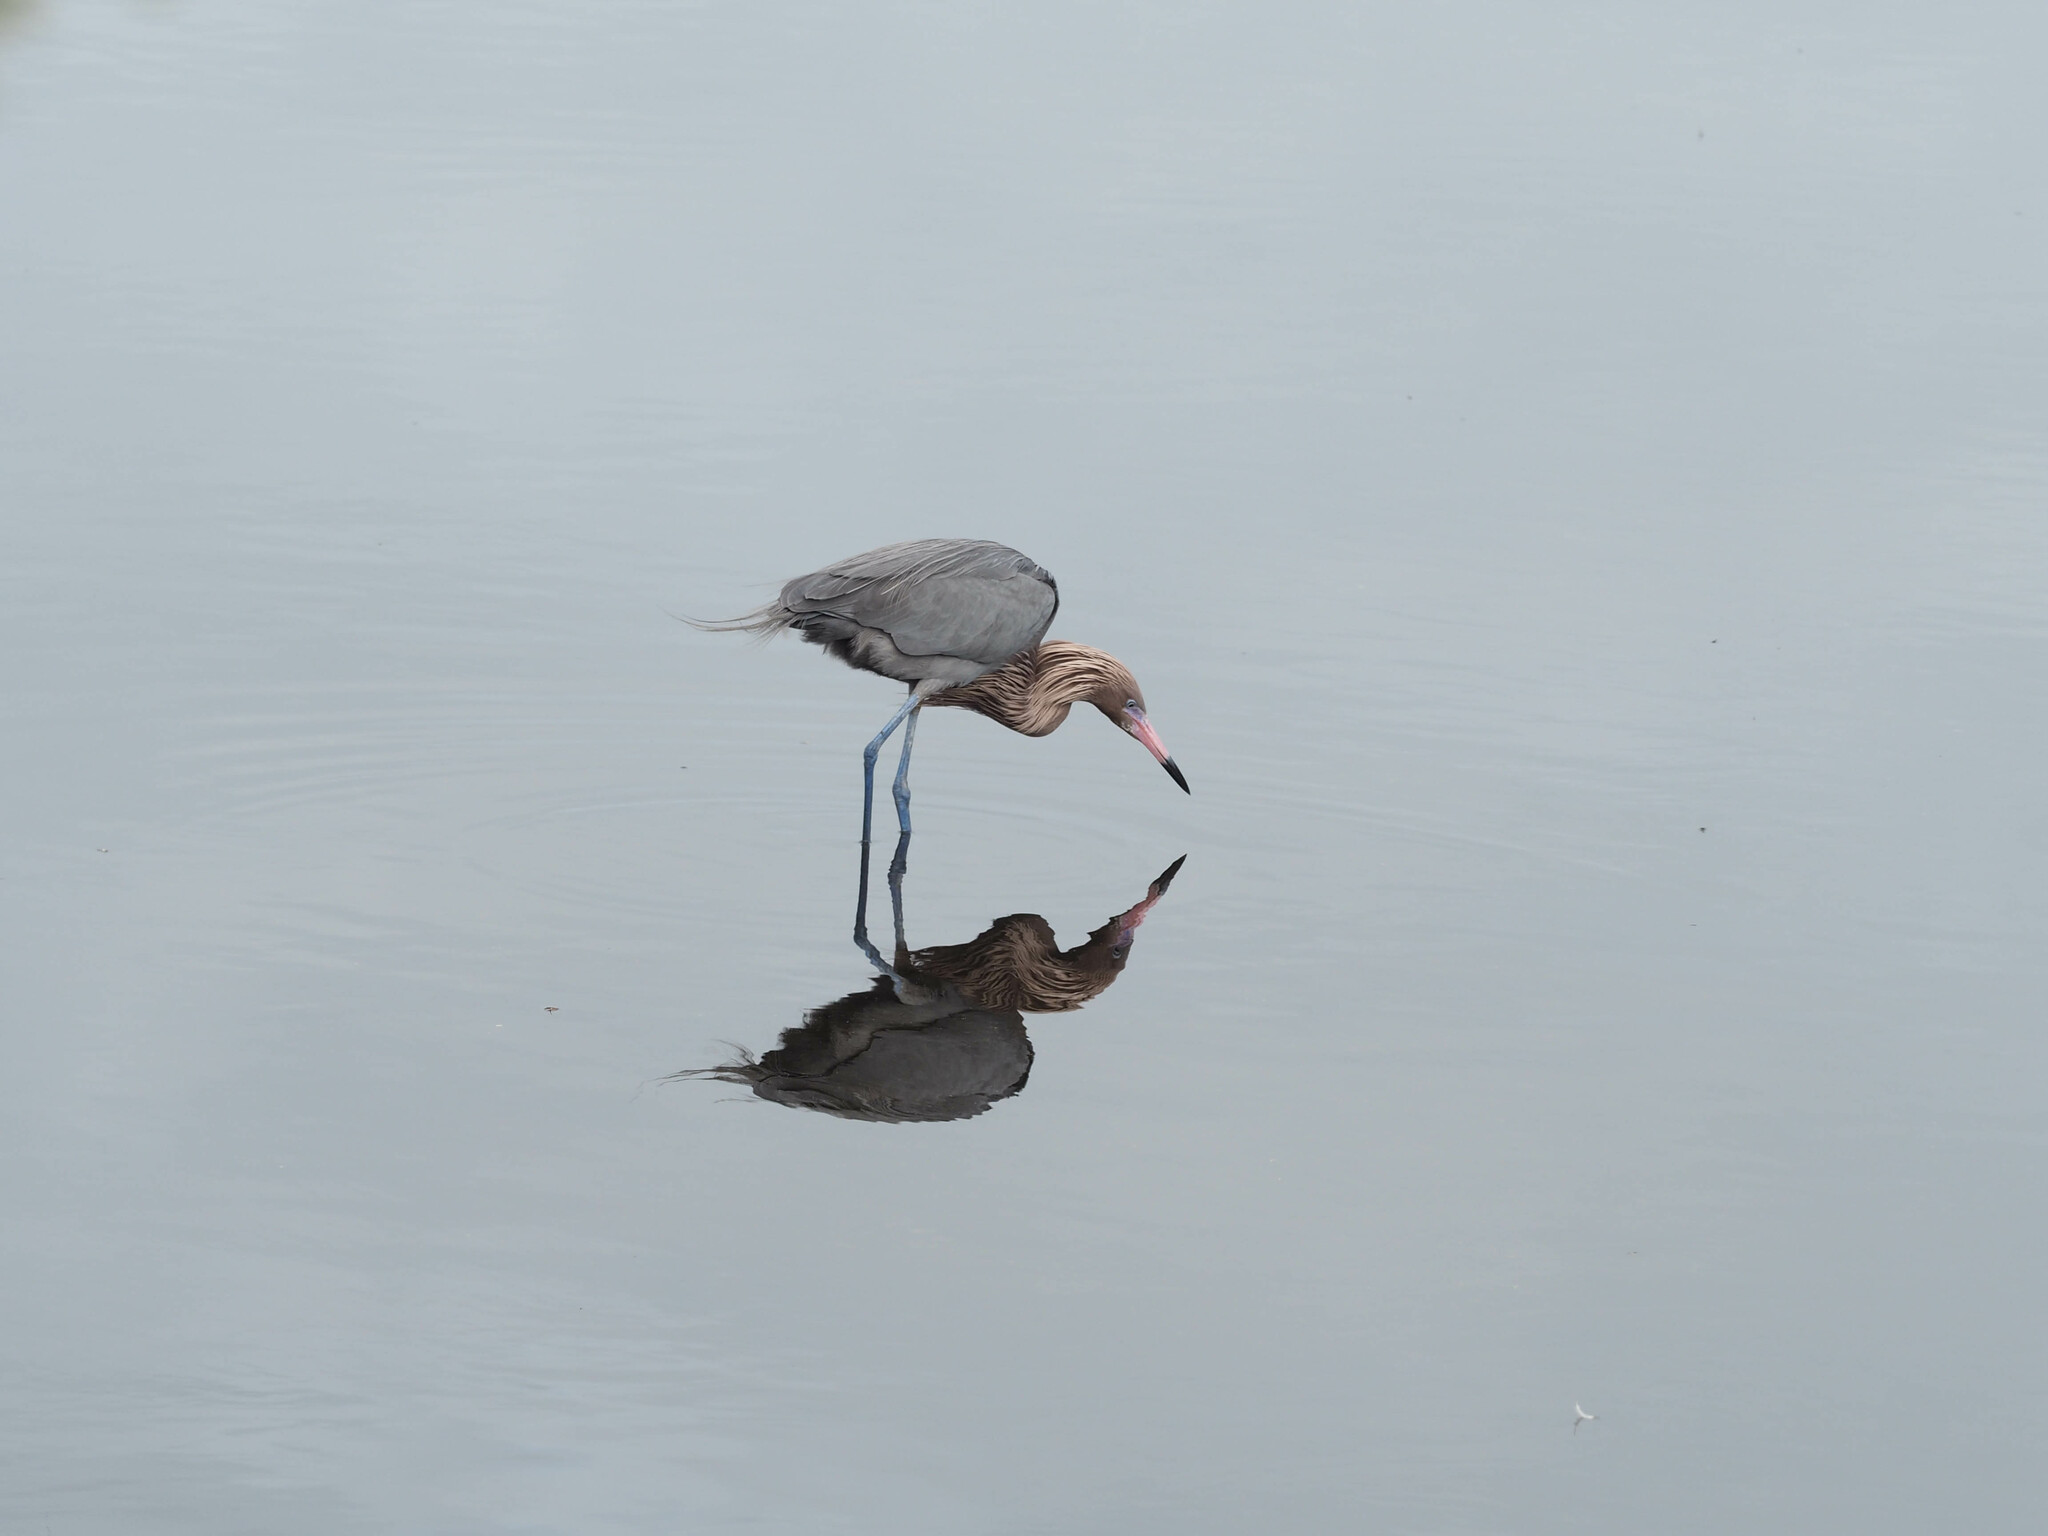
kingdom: Animalia
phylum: Chordata
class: Aves
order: Pelecaniformes
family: Ardeidae
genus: Egretta
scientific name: Egretta rufescens
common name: Reddish egret
